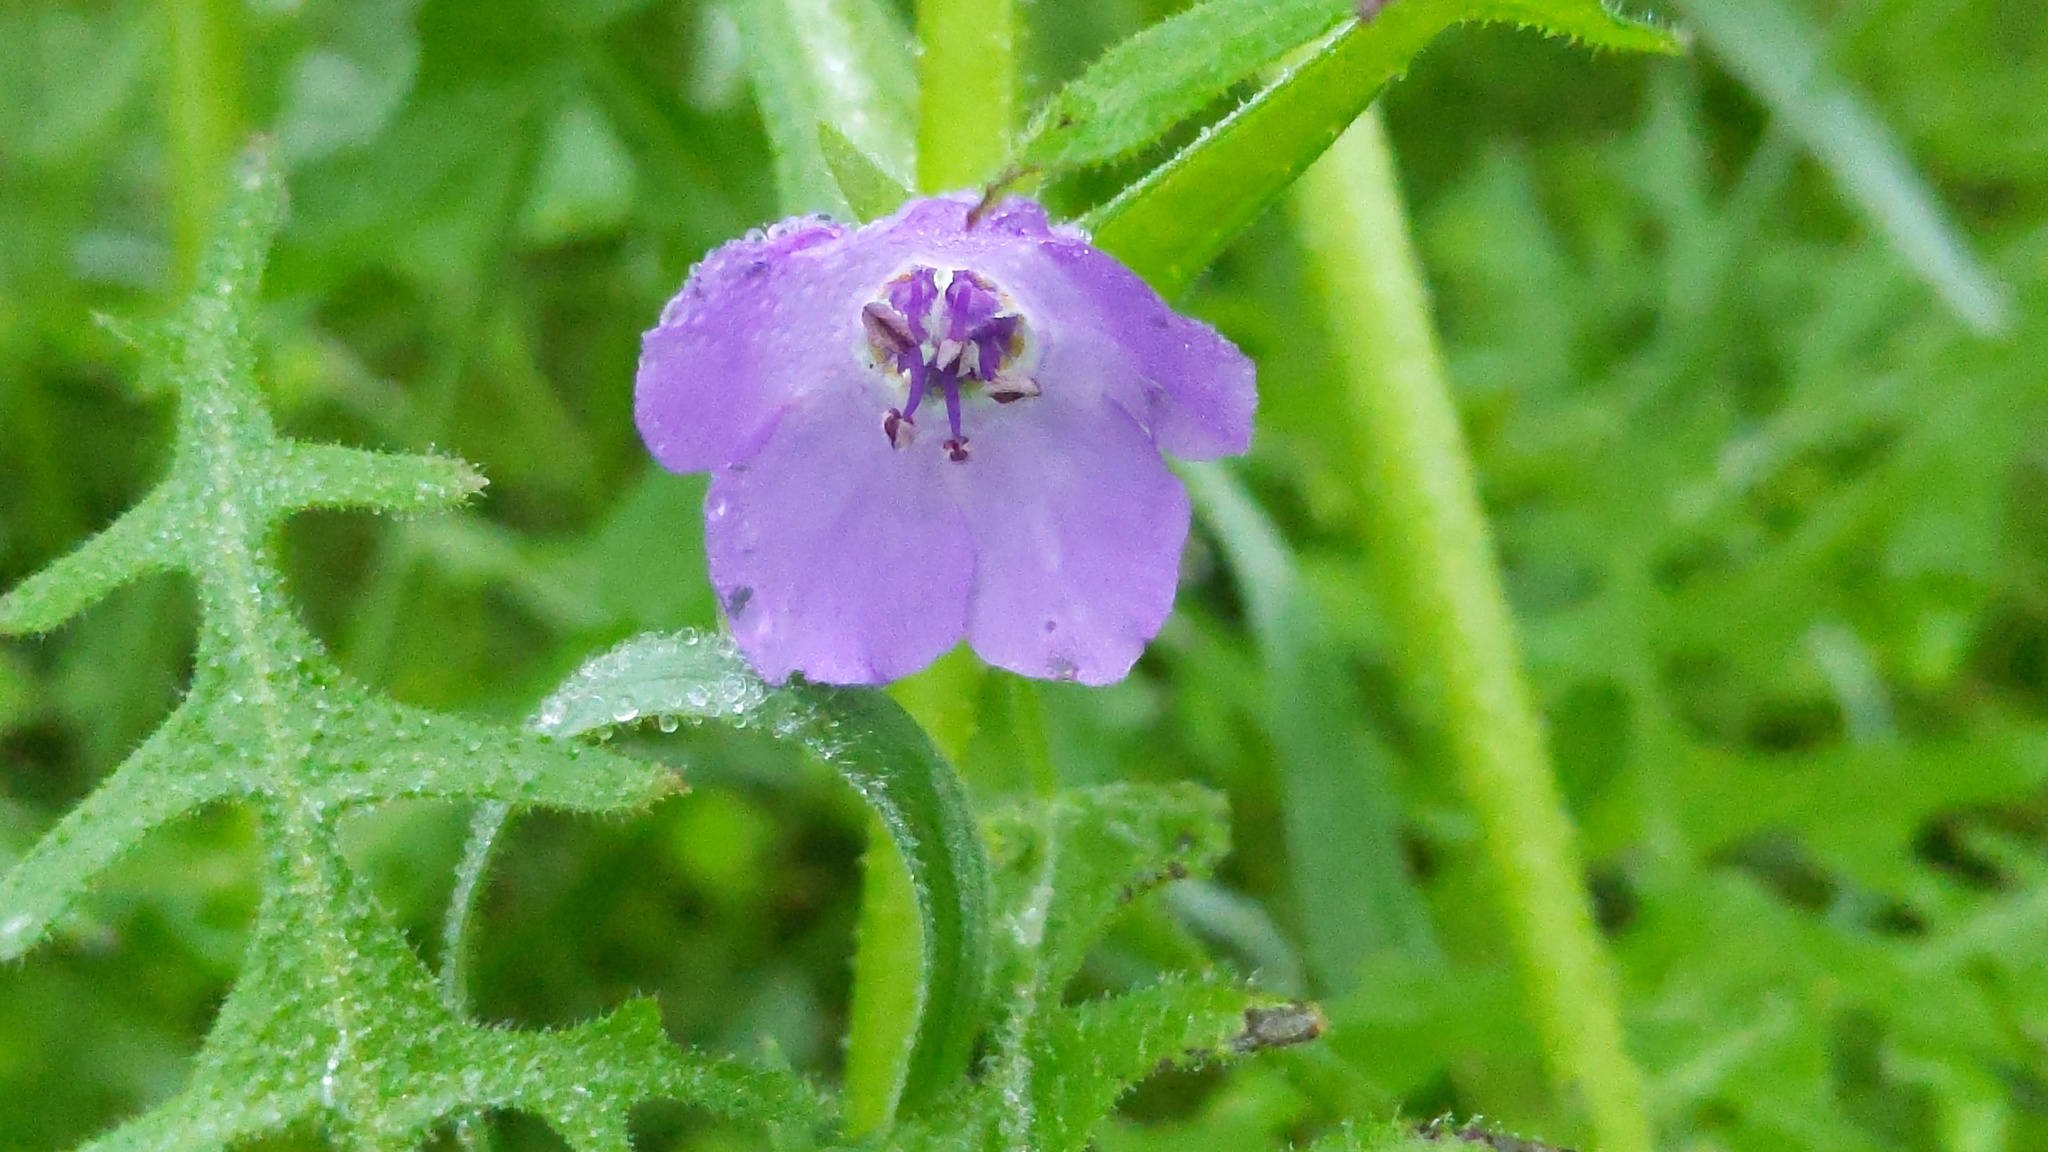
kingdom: Plantae
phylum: Tracheophyta
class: Magnoliopsida
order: Boraginales
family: Hydrophyllaceae
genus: Pholistoma
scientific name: Pholistoma auritum
